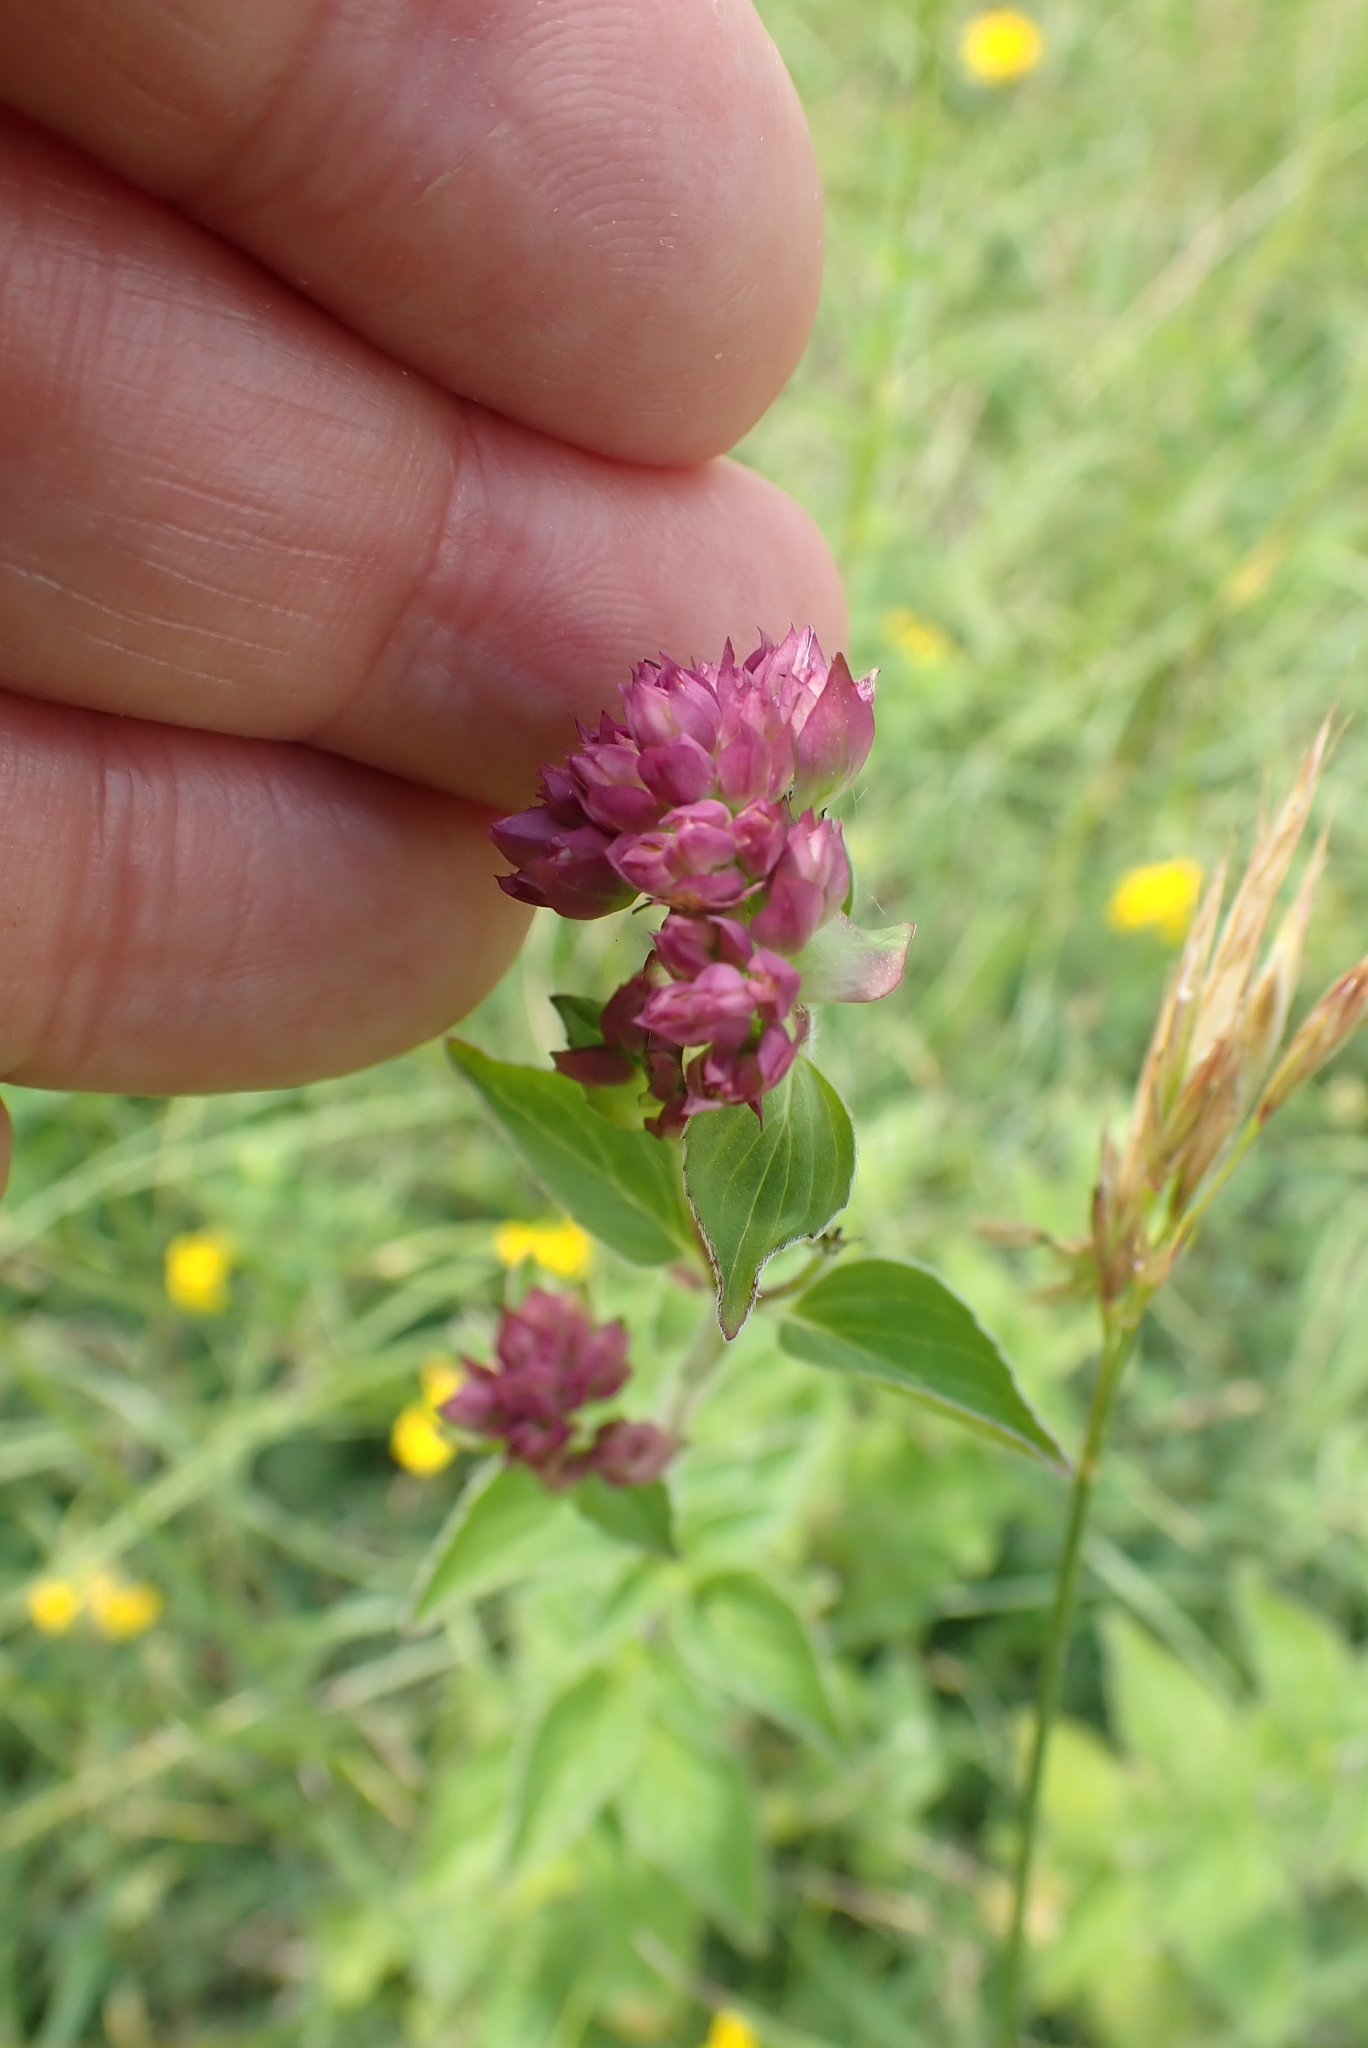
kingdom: Plantae
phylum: Tracheophyta
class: Magnoliopsida
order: Lamiales
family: Lamiaceae
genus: Origanum
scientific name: Origanum vulgare
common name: Wild marjoram
